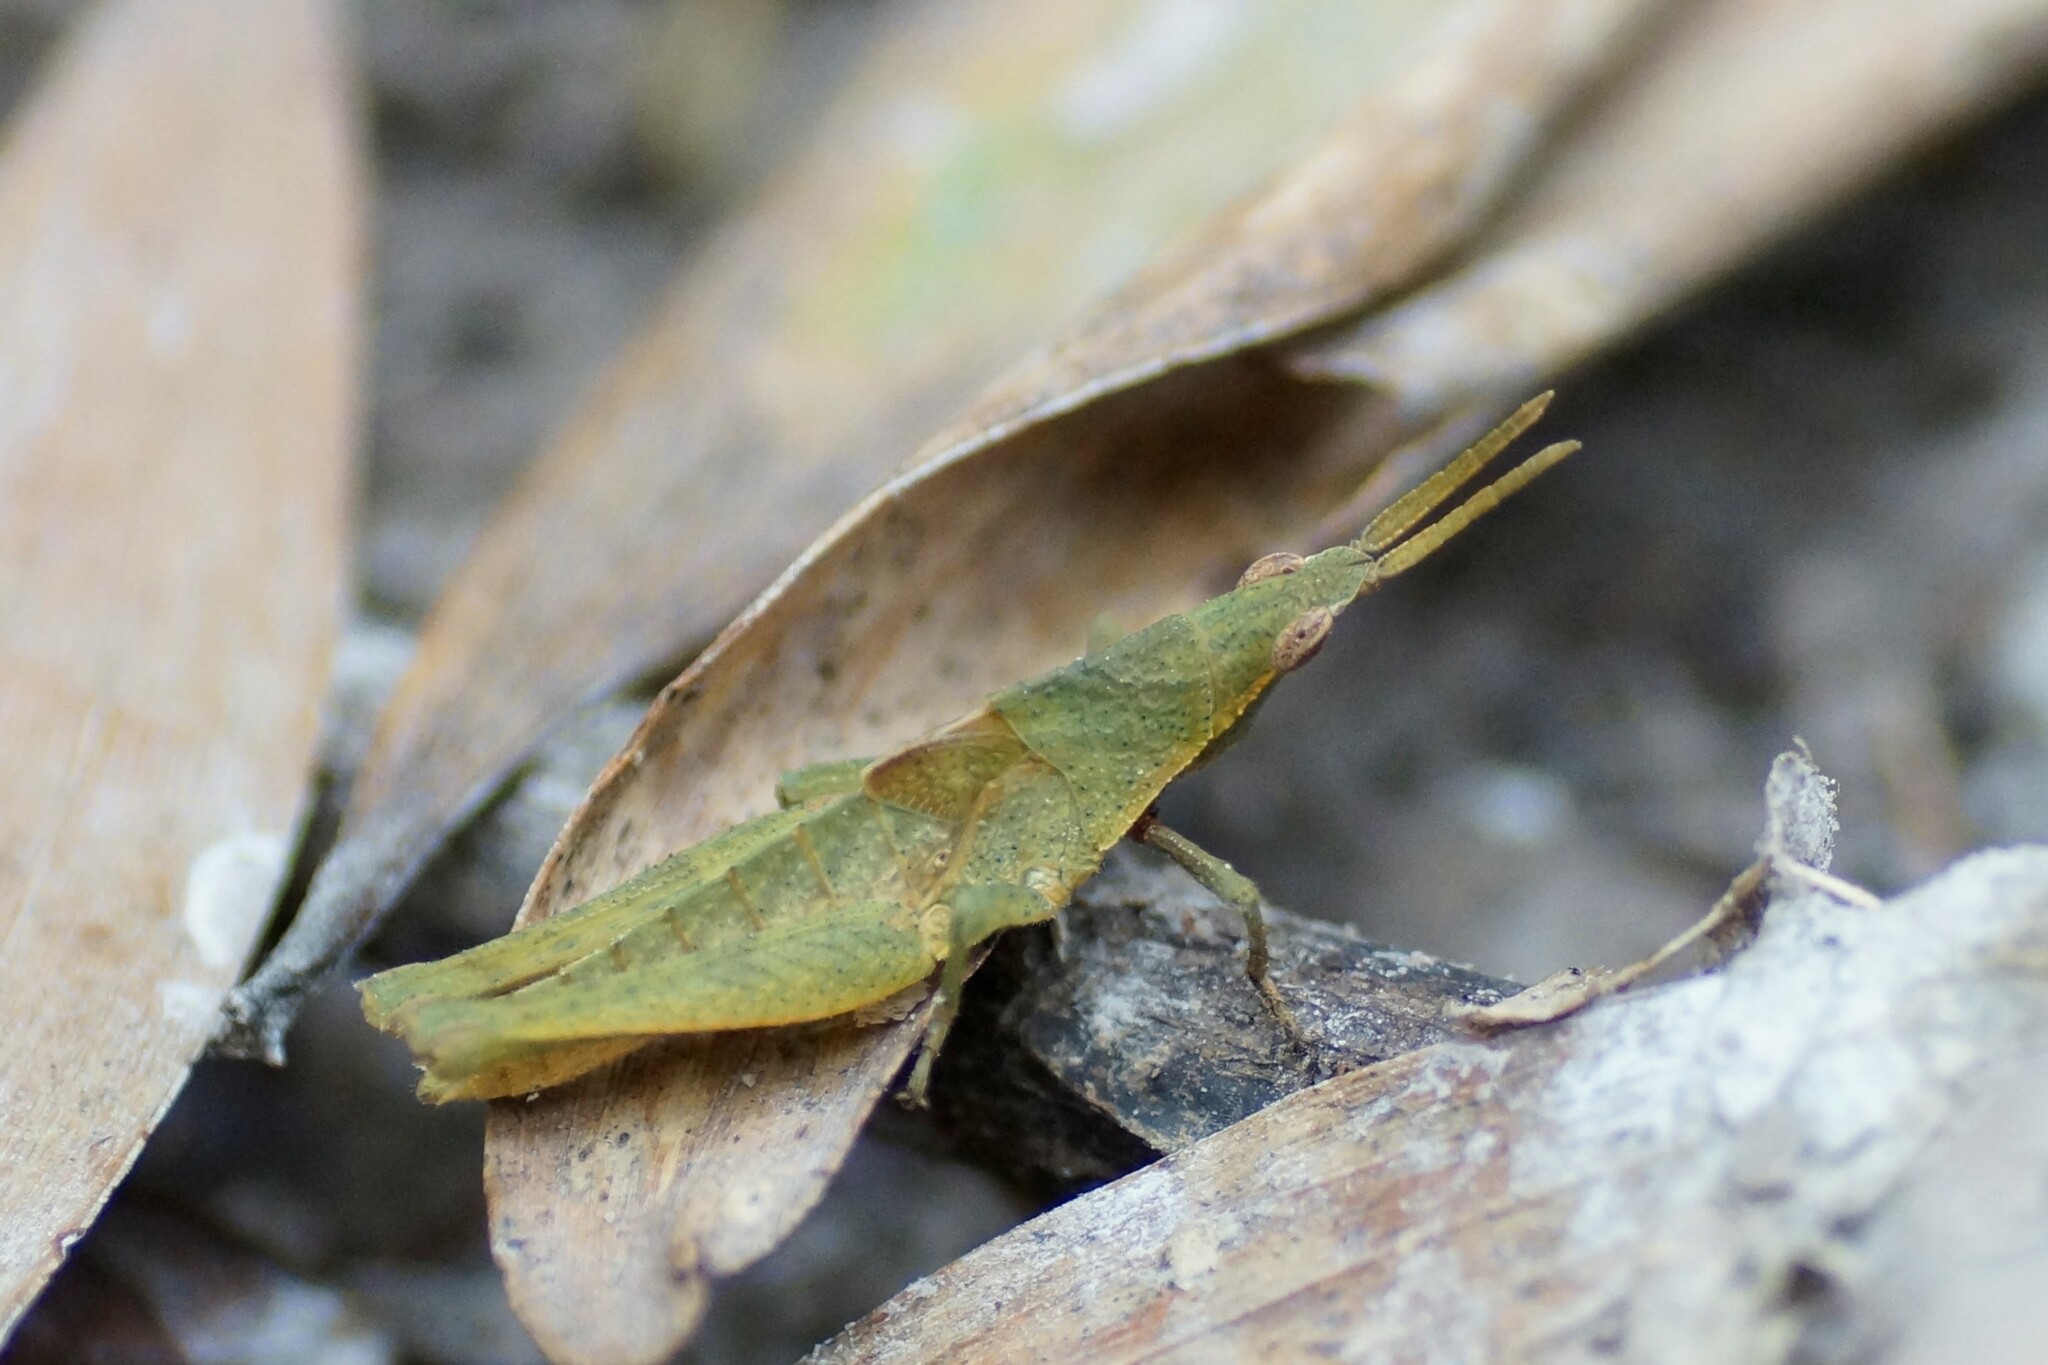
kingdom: Animalia
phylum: Arthropoda
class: Insecta
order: Orthoptera
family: Pyrgomorphidae
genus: Atractomorpha
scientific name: Atractomorpha similis
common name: Northern grass pyrgomorph
